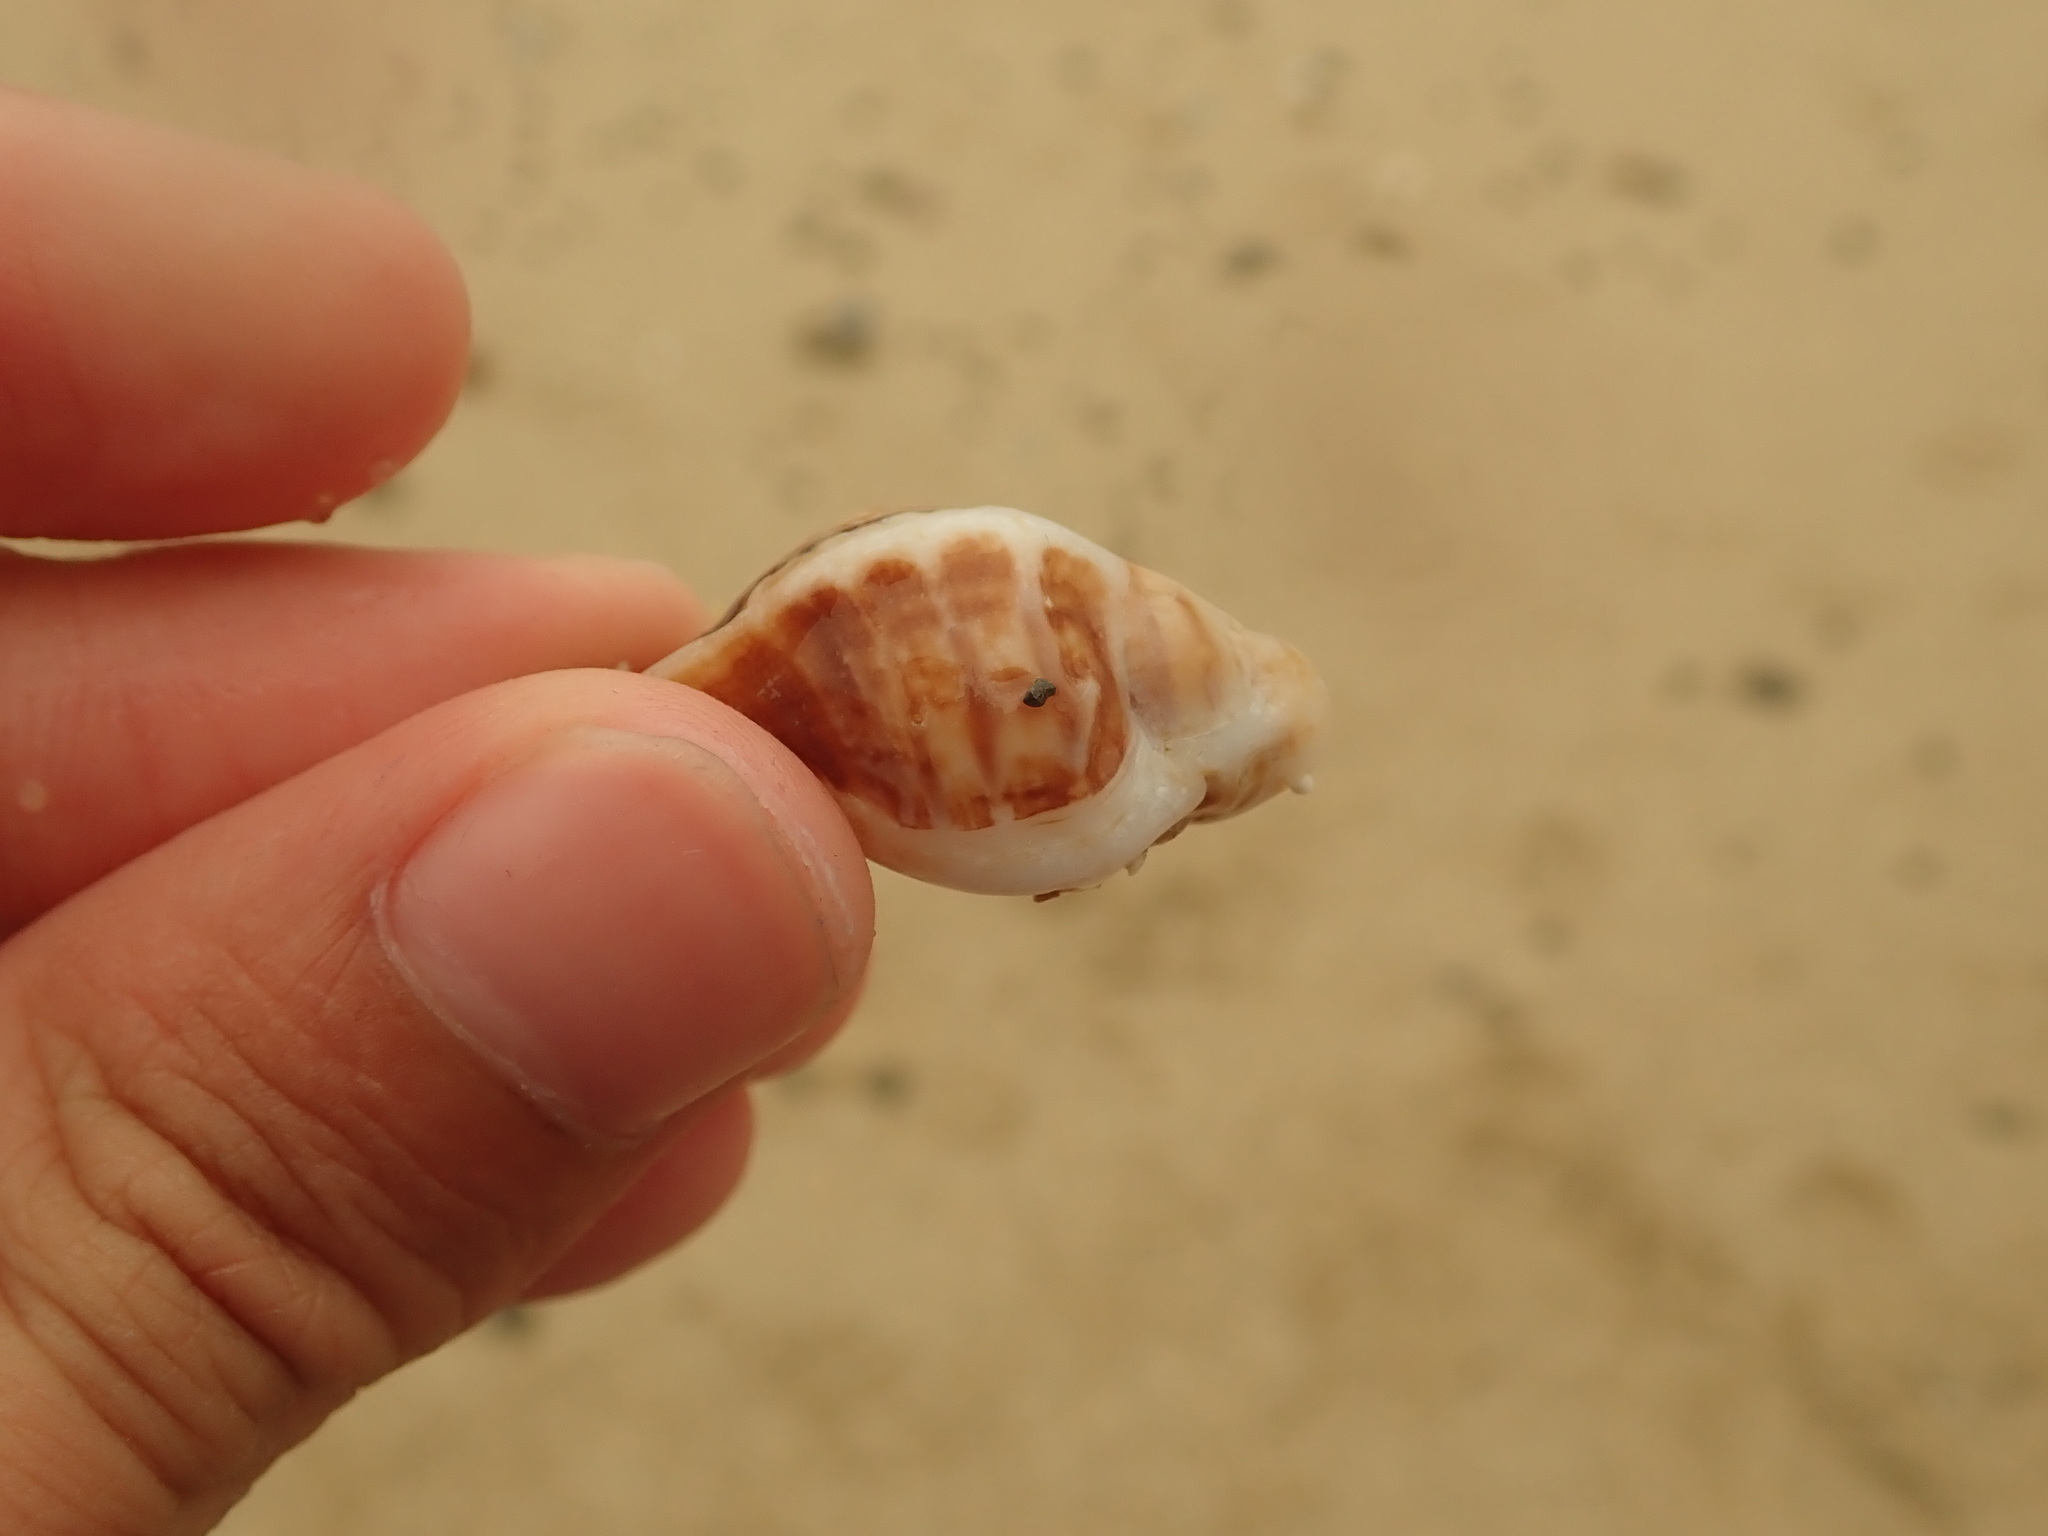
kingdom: Animalia
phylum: Mollusca
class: Gastropoda
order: Neogastropoda
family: Muricidae
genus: Ceratostoma
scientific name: Ceratostoma foliatum
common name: Foliate thorn purpura
